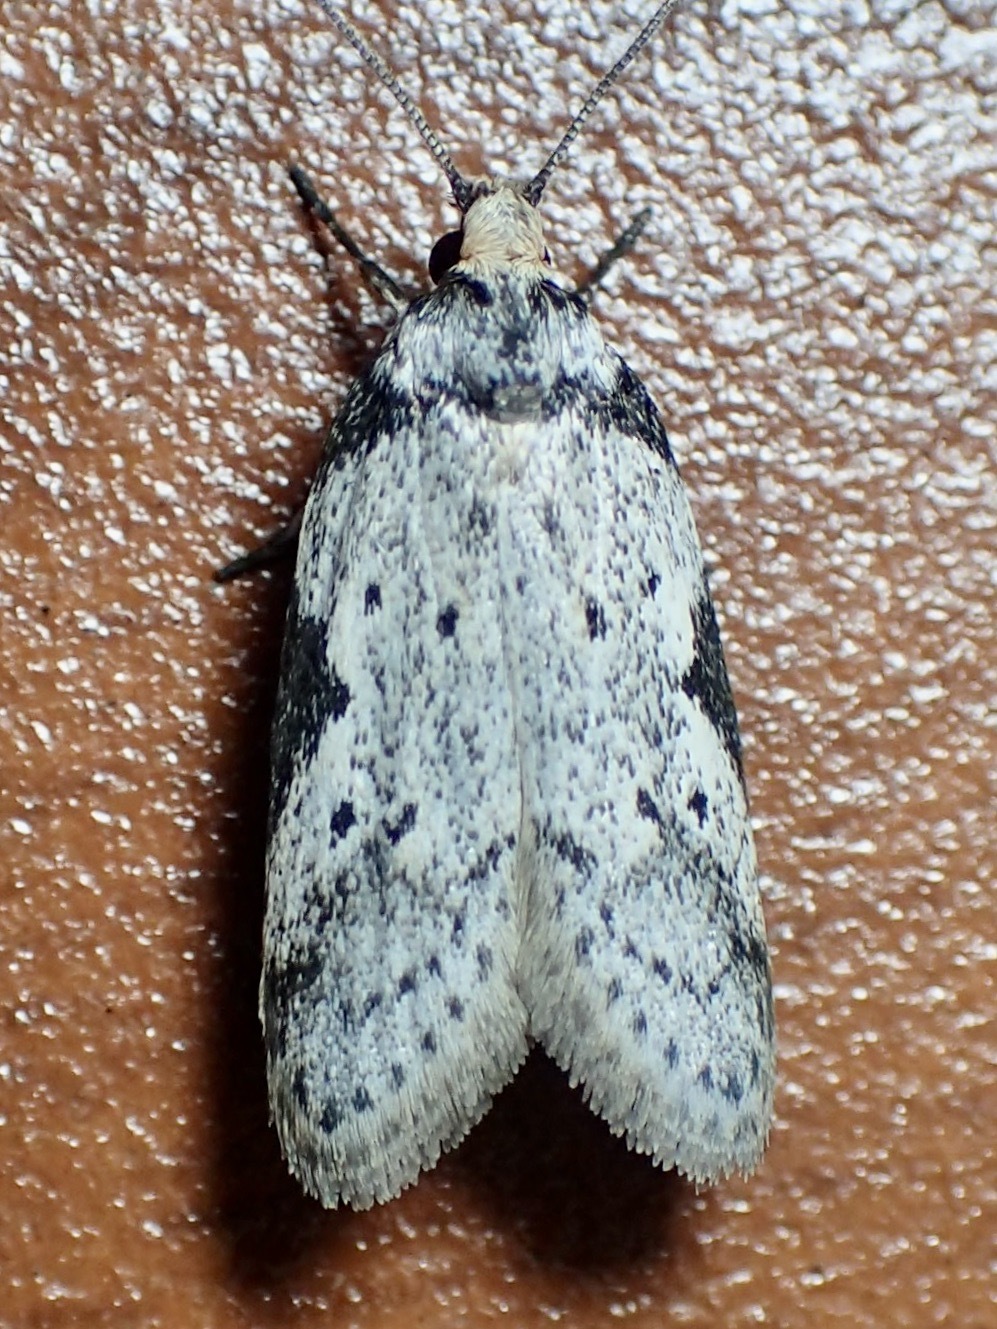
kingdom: Animalia
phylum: Arthropoda
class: Insecta
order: Lepidoptera
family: Oecophoridae
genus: Philobota
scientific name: Philobota transversella
